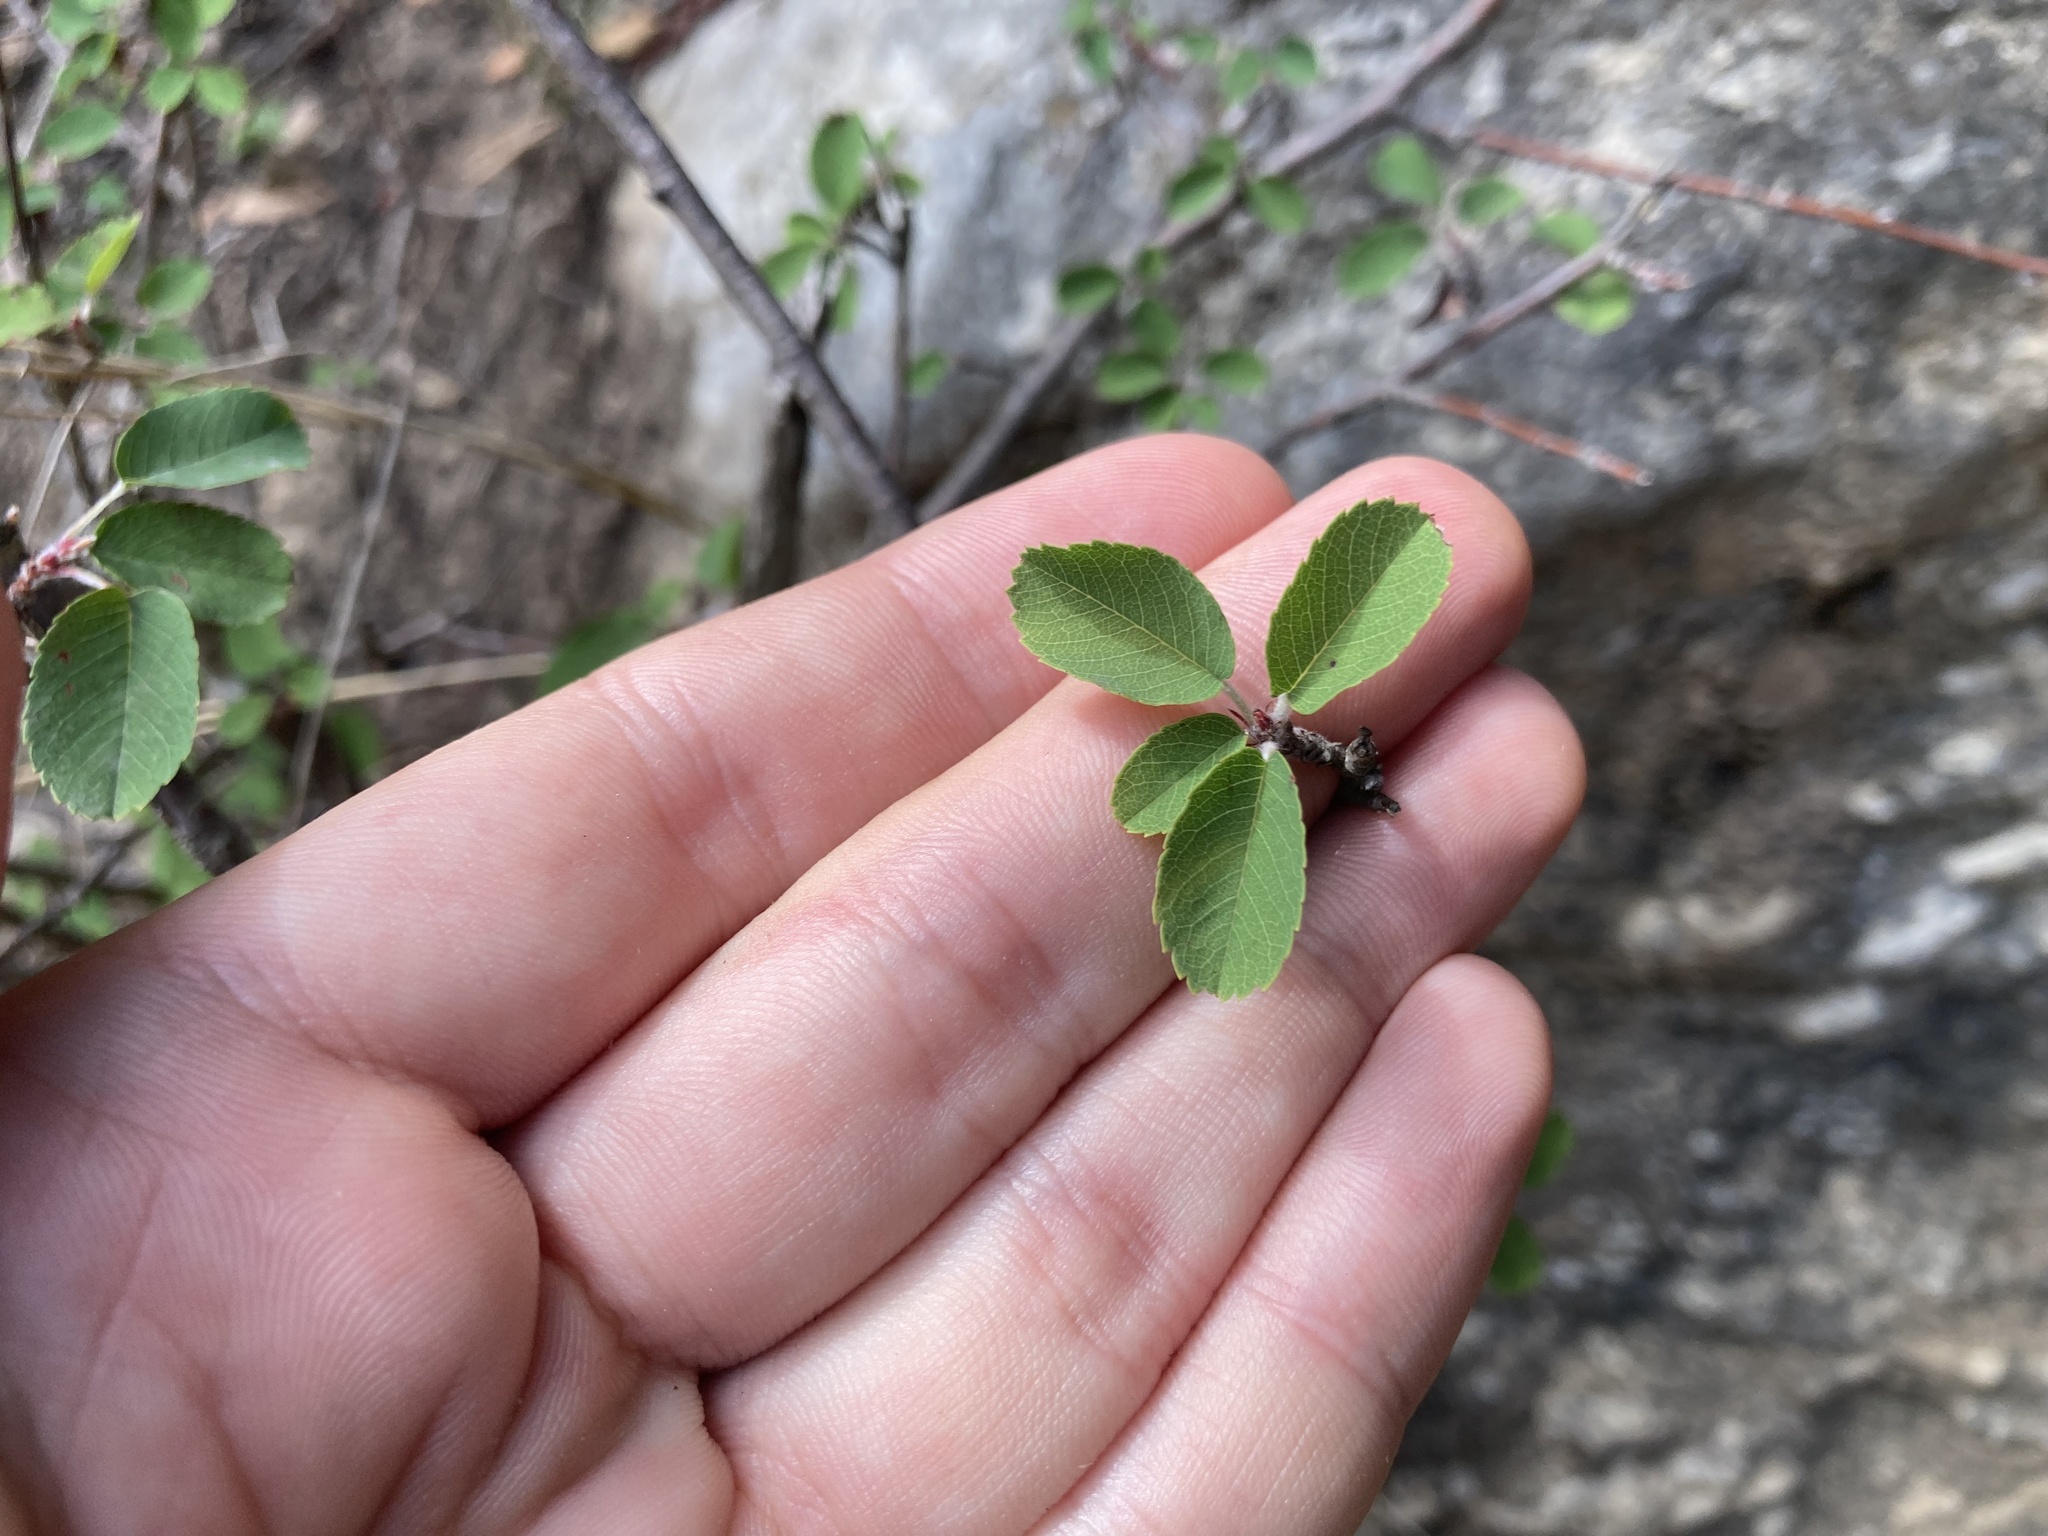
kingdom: Plantae
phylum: Tracheophyta
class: Magnoliopsida
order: Rosales
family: Rosaceae
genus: Amelanchier
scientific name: Amelanchier ovalis
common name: Serviceberry
